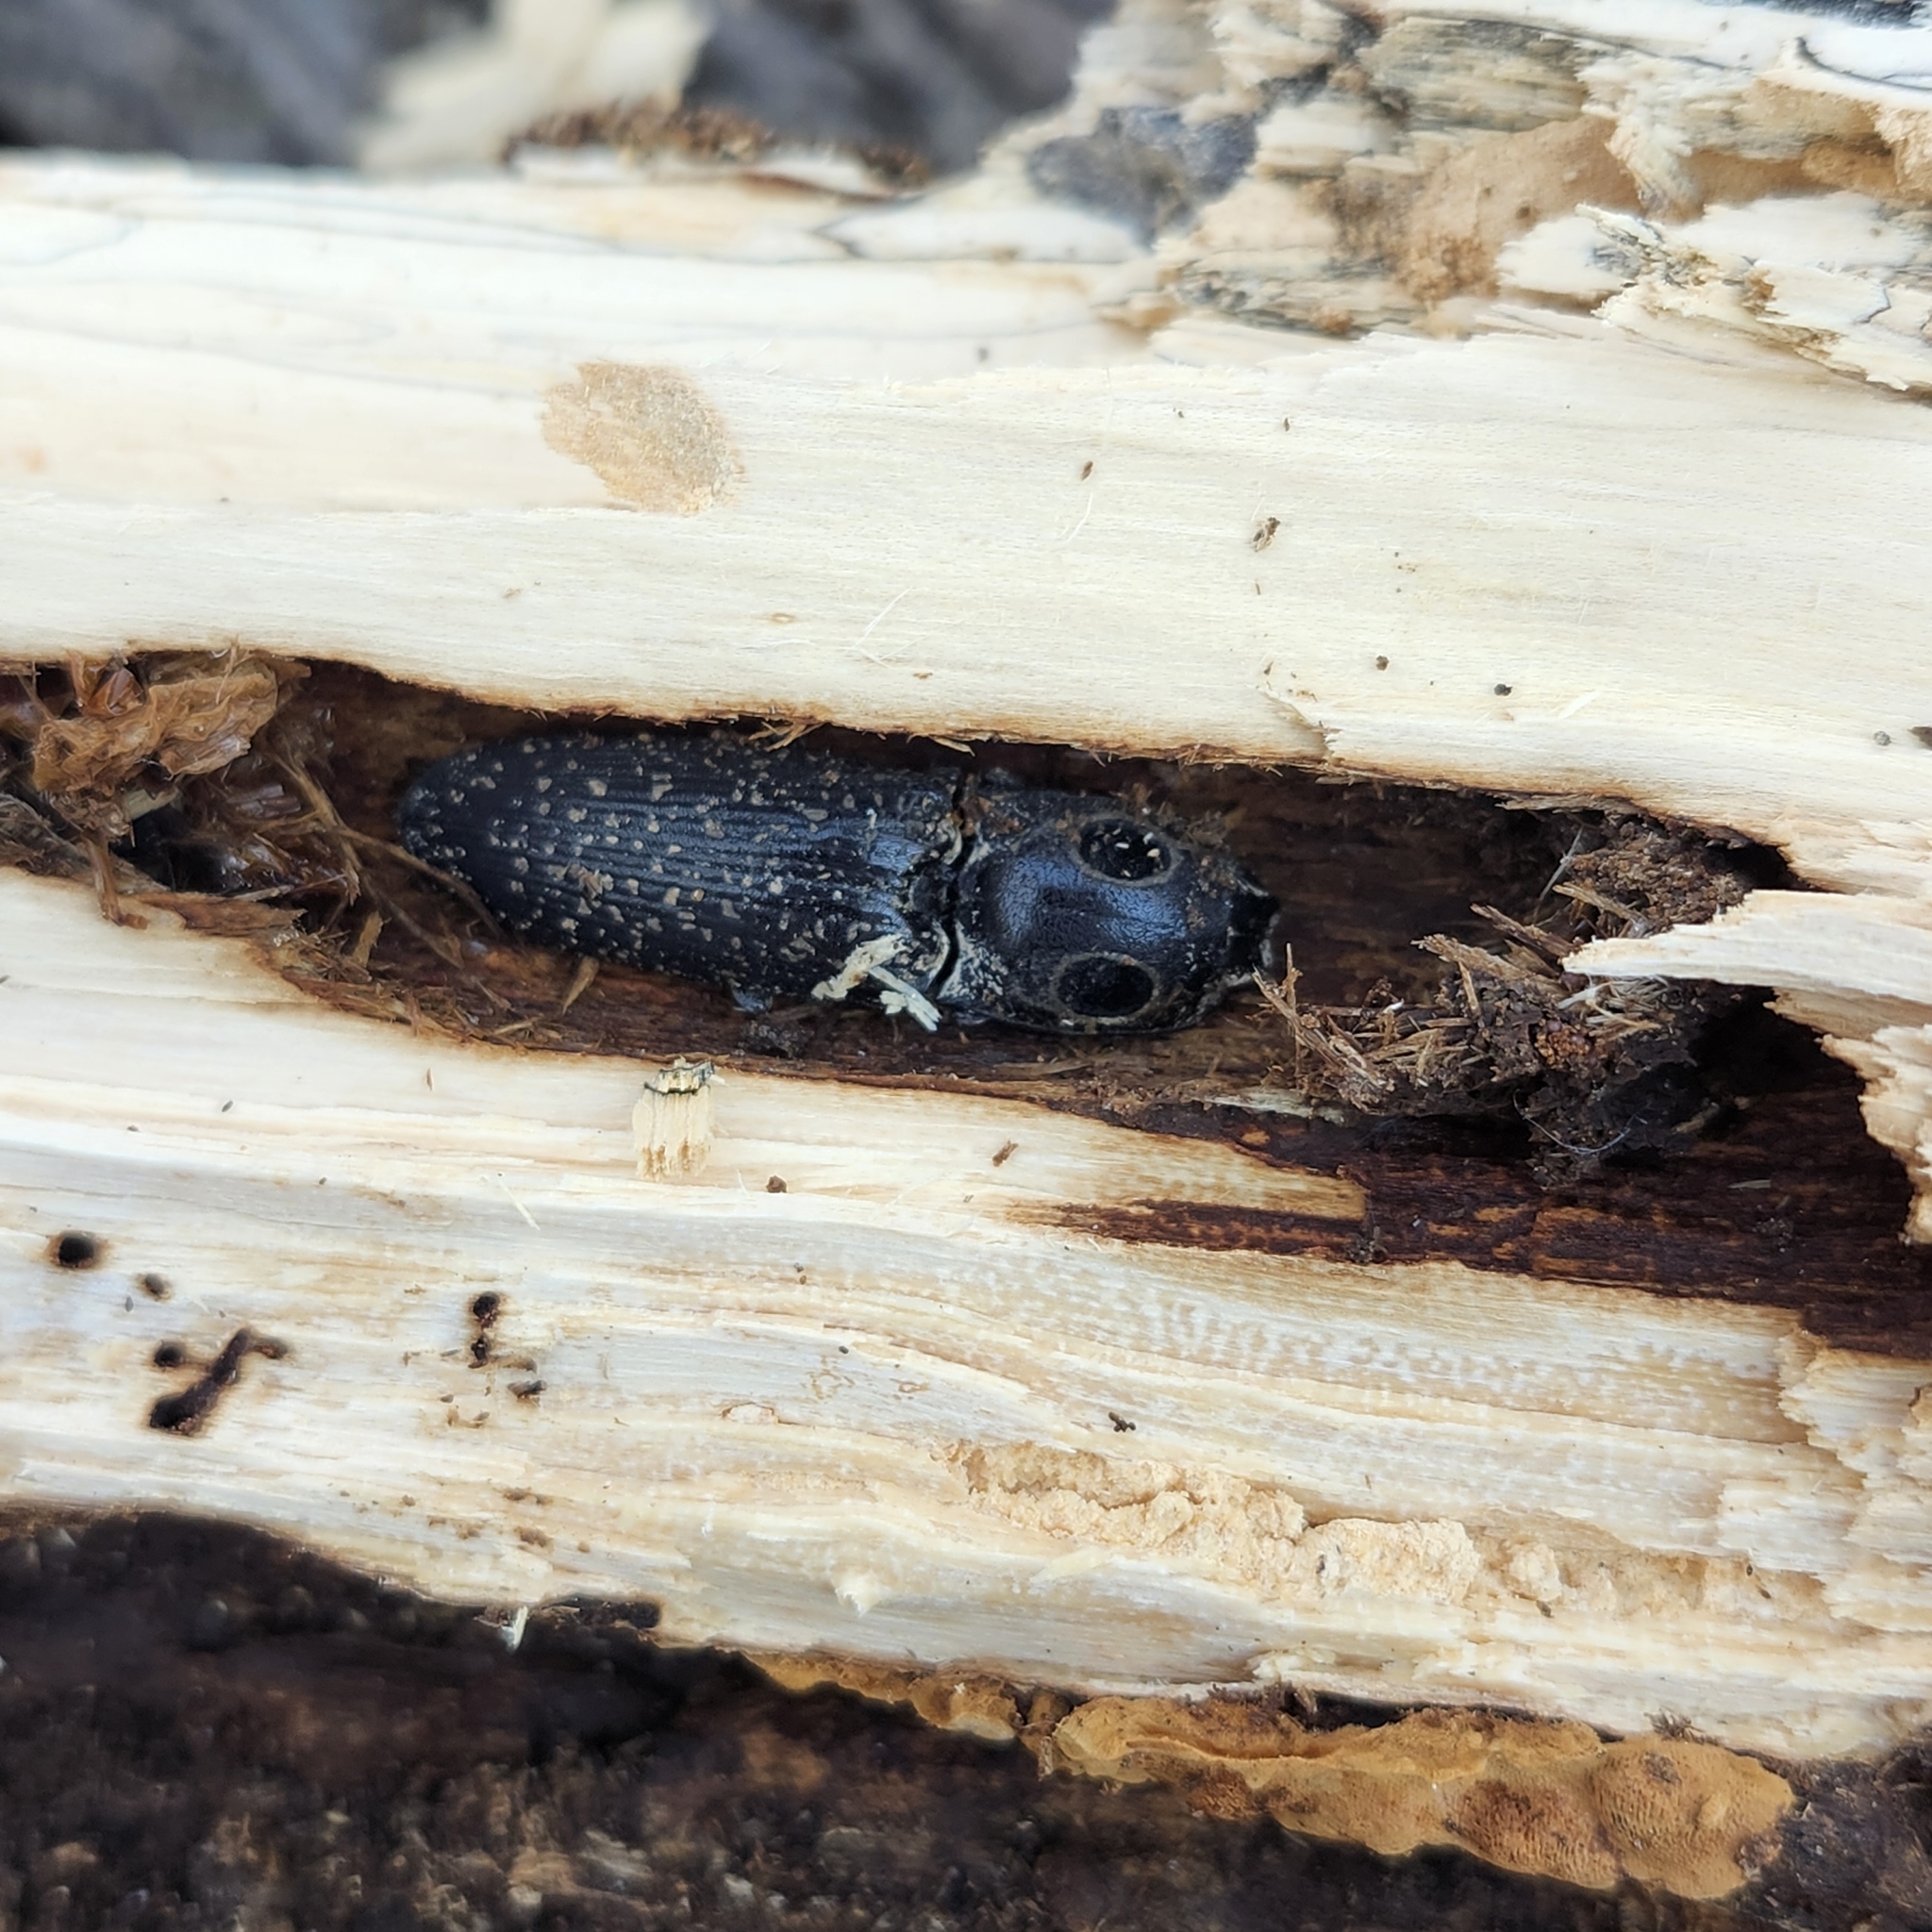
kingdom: Animalia
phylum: Arthropoda
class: Insecta
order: Coleoptera
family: Elateridae
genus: Alaus
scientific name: Alaus oculatus
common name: Eastern eyed click beetle
